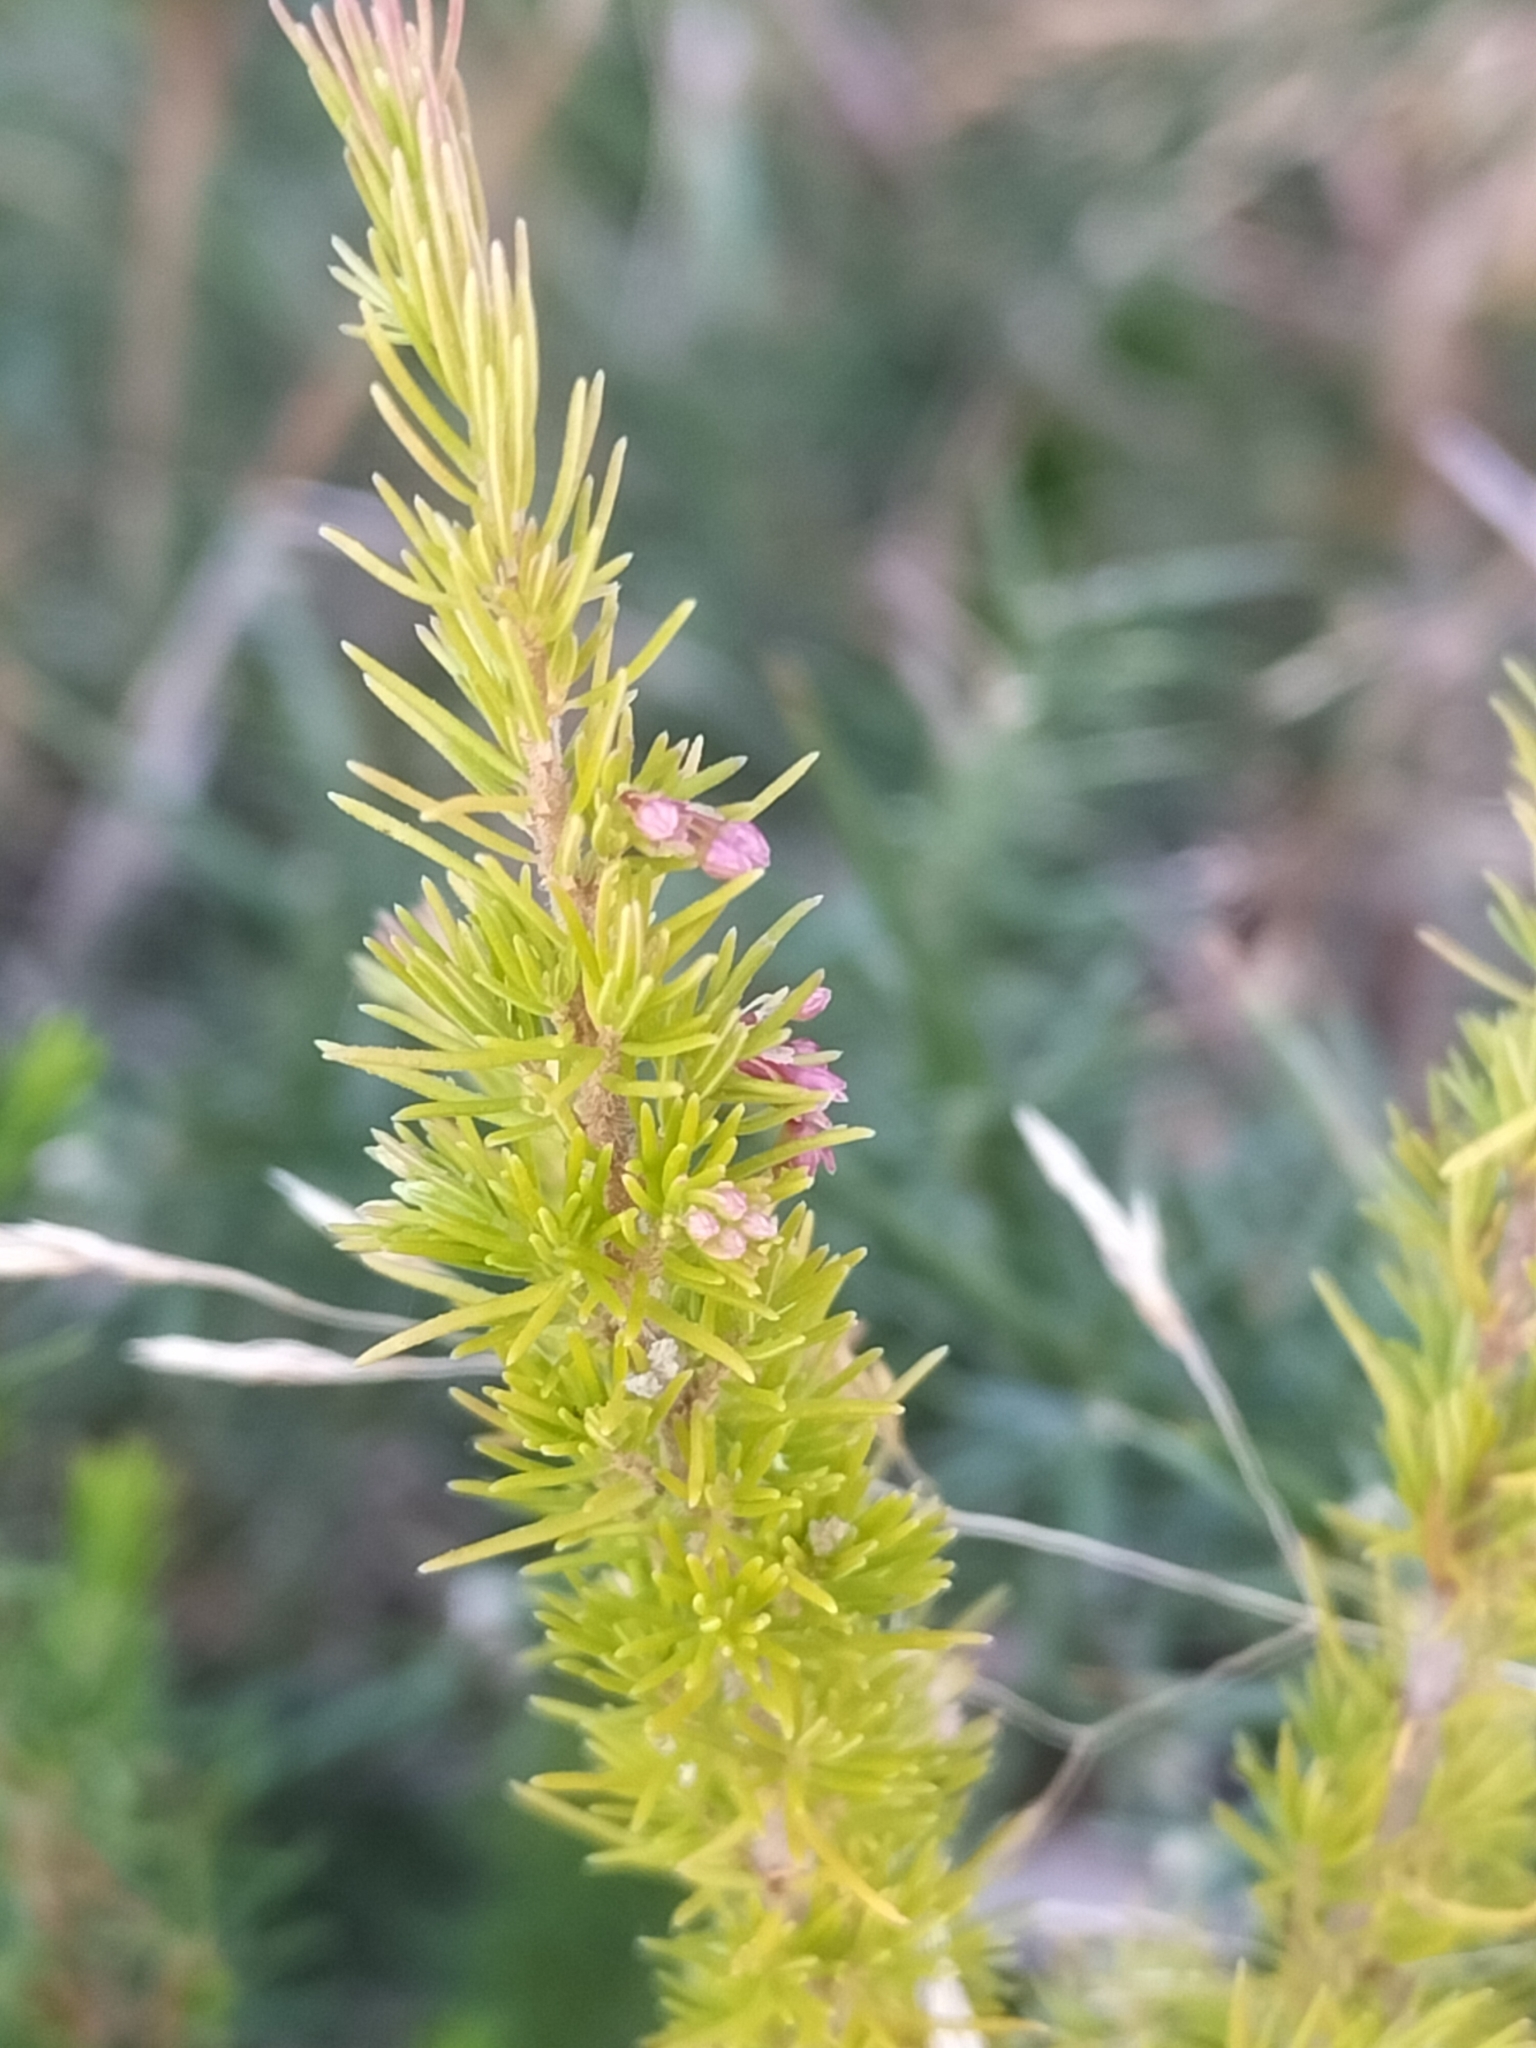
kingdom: Plantae
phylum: Tracheophyta
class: Magnoliopsida
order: Ericales
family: Ericaceae
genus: Erica
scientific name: Erica lusitanica
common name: Spanish heath
